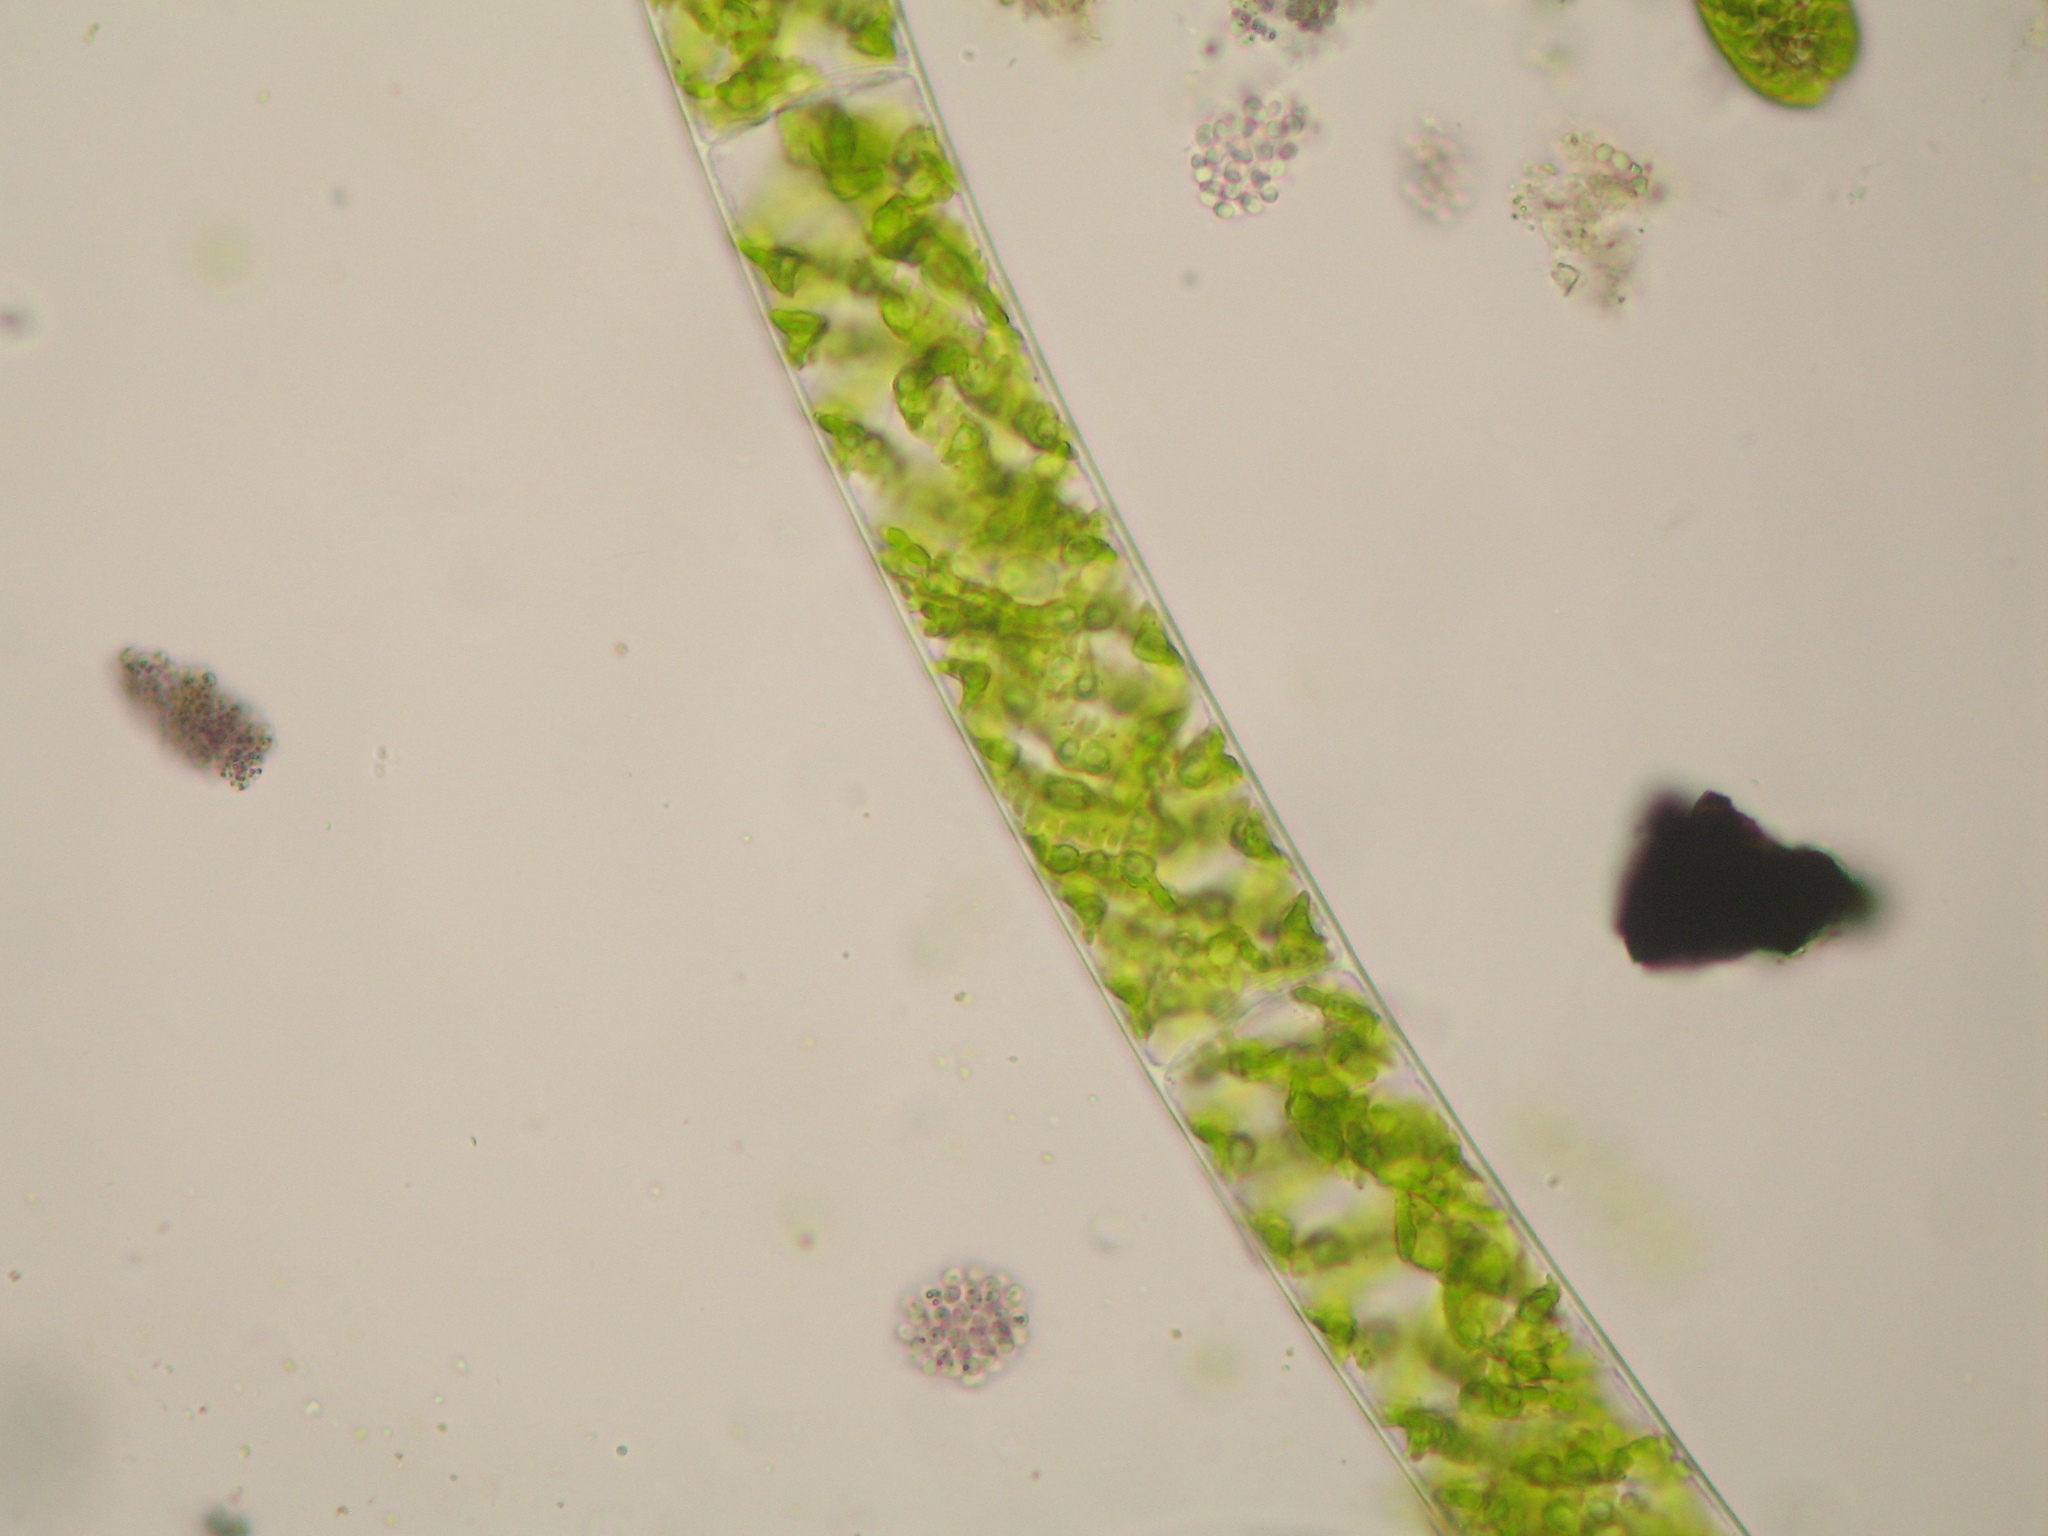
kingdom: Plantae
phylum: Charophyta
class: Zygnematophyceae
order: Zygnematales
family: Zygnemataceae
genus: Spirogyra
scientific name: Spirogyra
